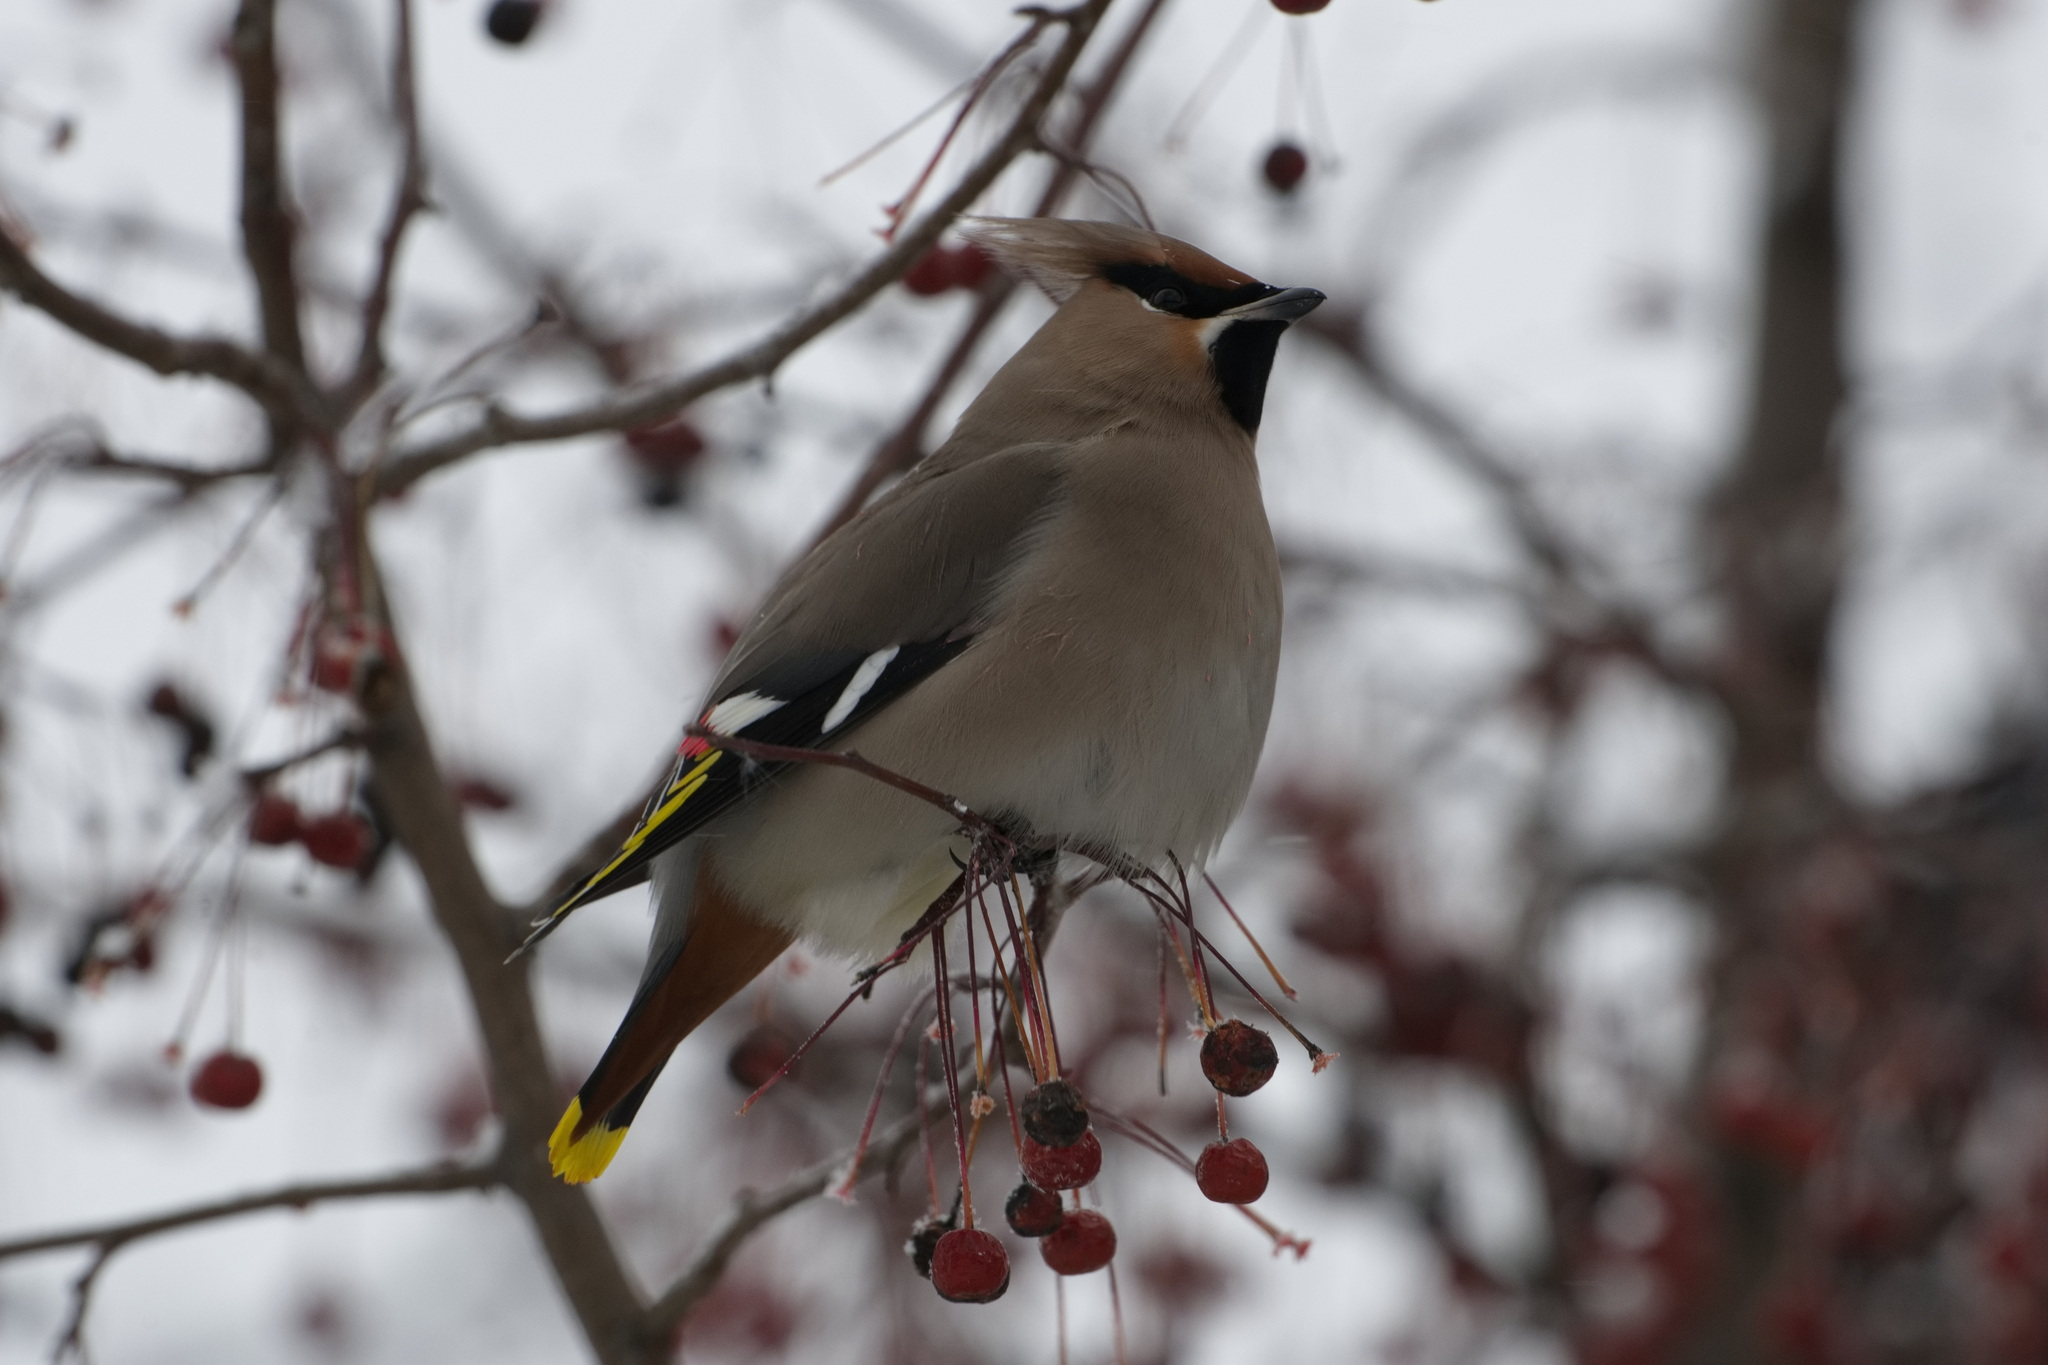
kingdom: Animalia
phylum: Chordata
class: Aves
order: Passeriformes
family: Bombycillidae
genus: Bombycilla
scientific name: Bombycilla garrulus
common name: Bohemian waxwing
